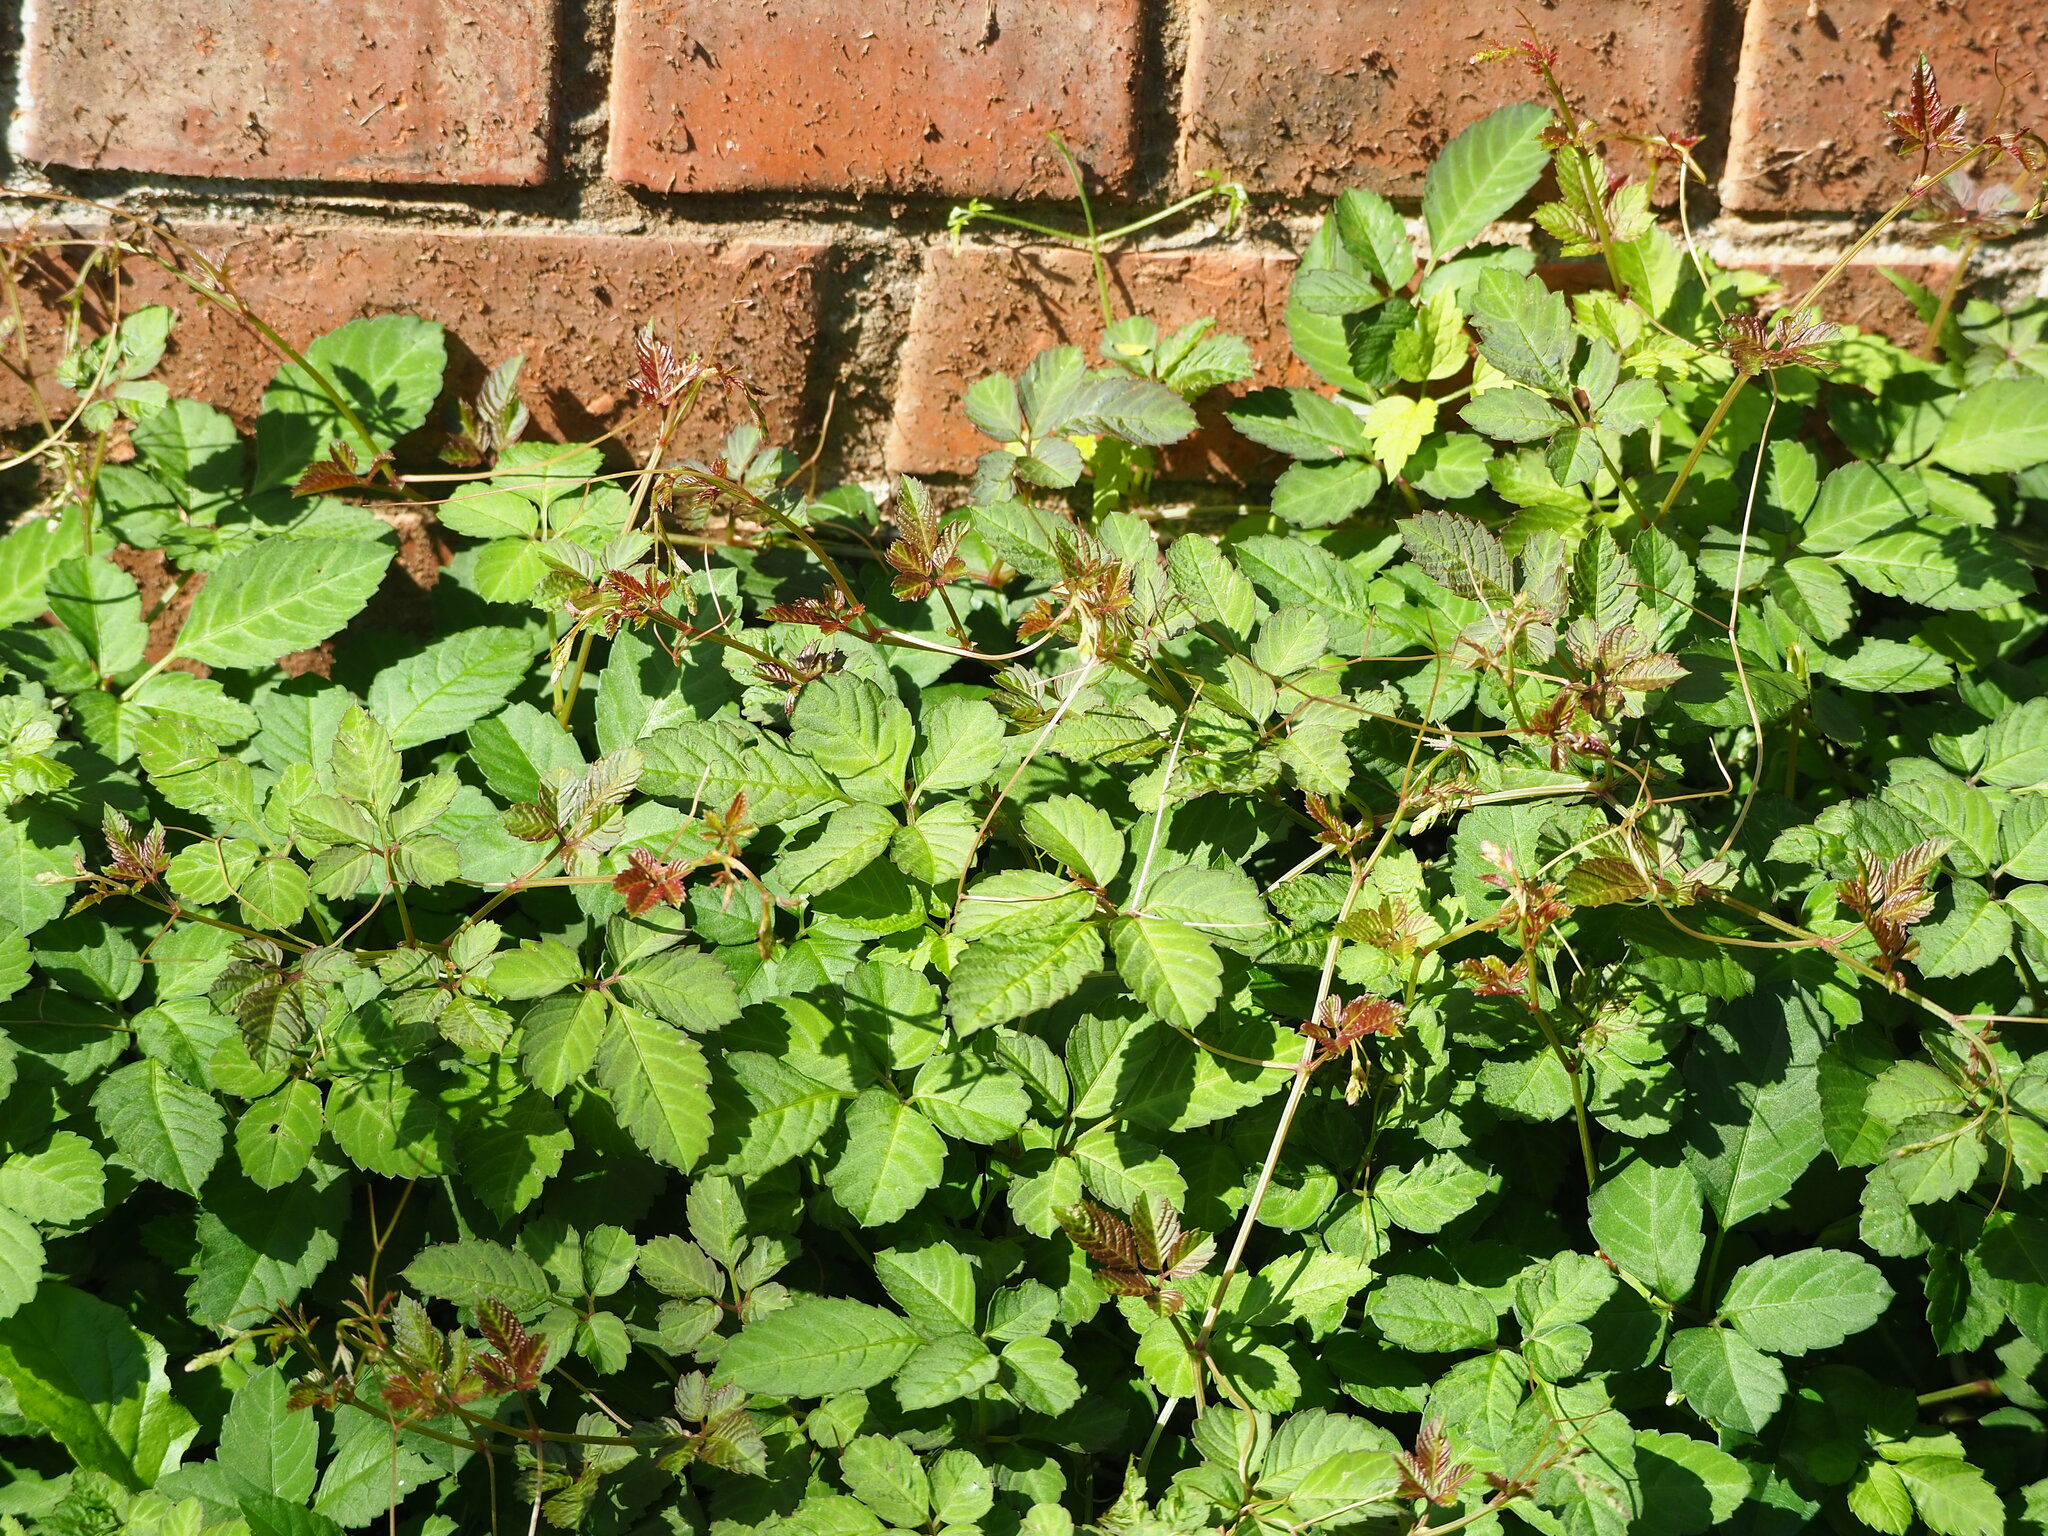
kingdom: Plantae
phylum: Tracheophyta
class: Magnoliopsida
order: Vitales
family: Vitaceae
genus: Causonis
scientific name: Causonis japonica
